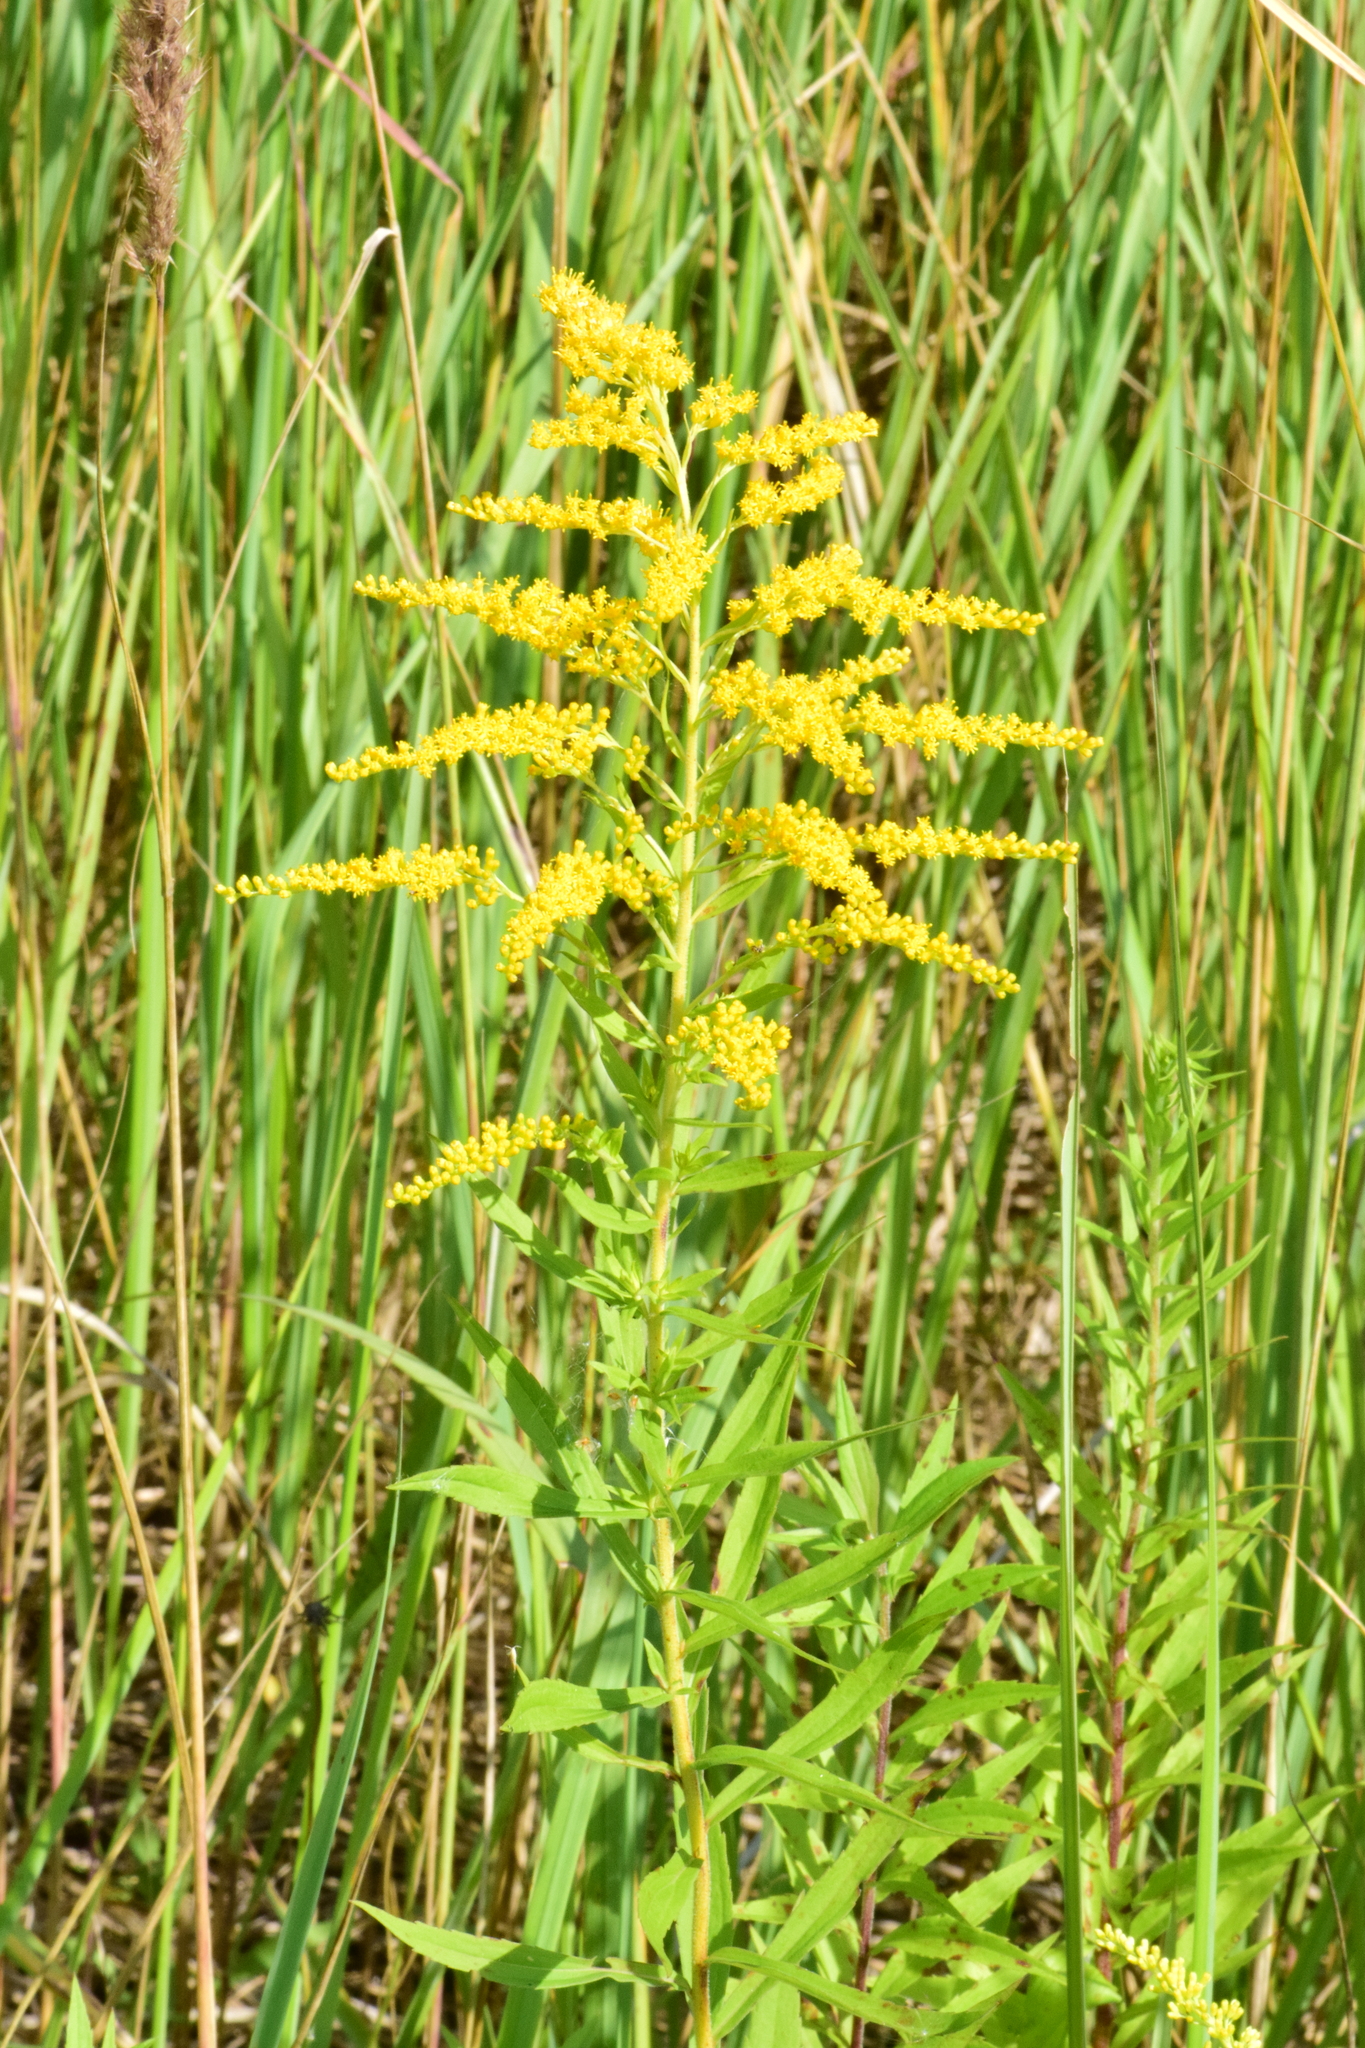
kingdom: Plantae
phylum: Tracheophyta
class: Magnoliopsida
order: Asterales
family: Asteraceae
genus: Solidago
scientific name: Solidago canadensis
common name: Canada goldenrod
